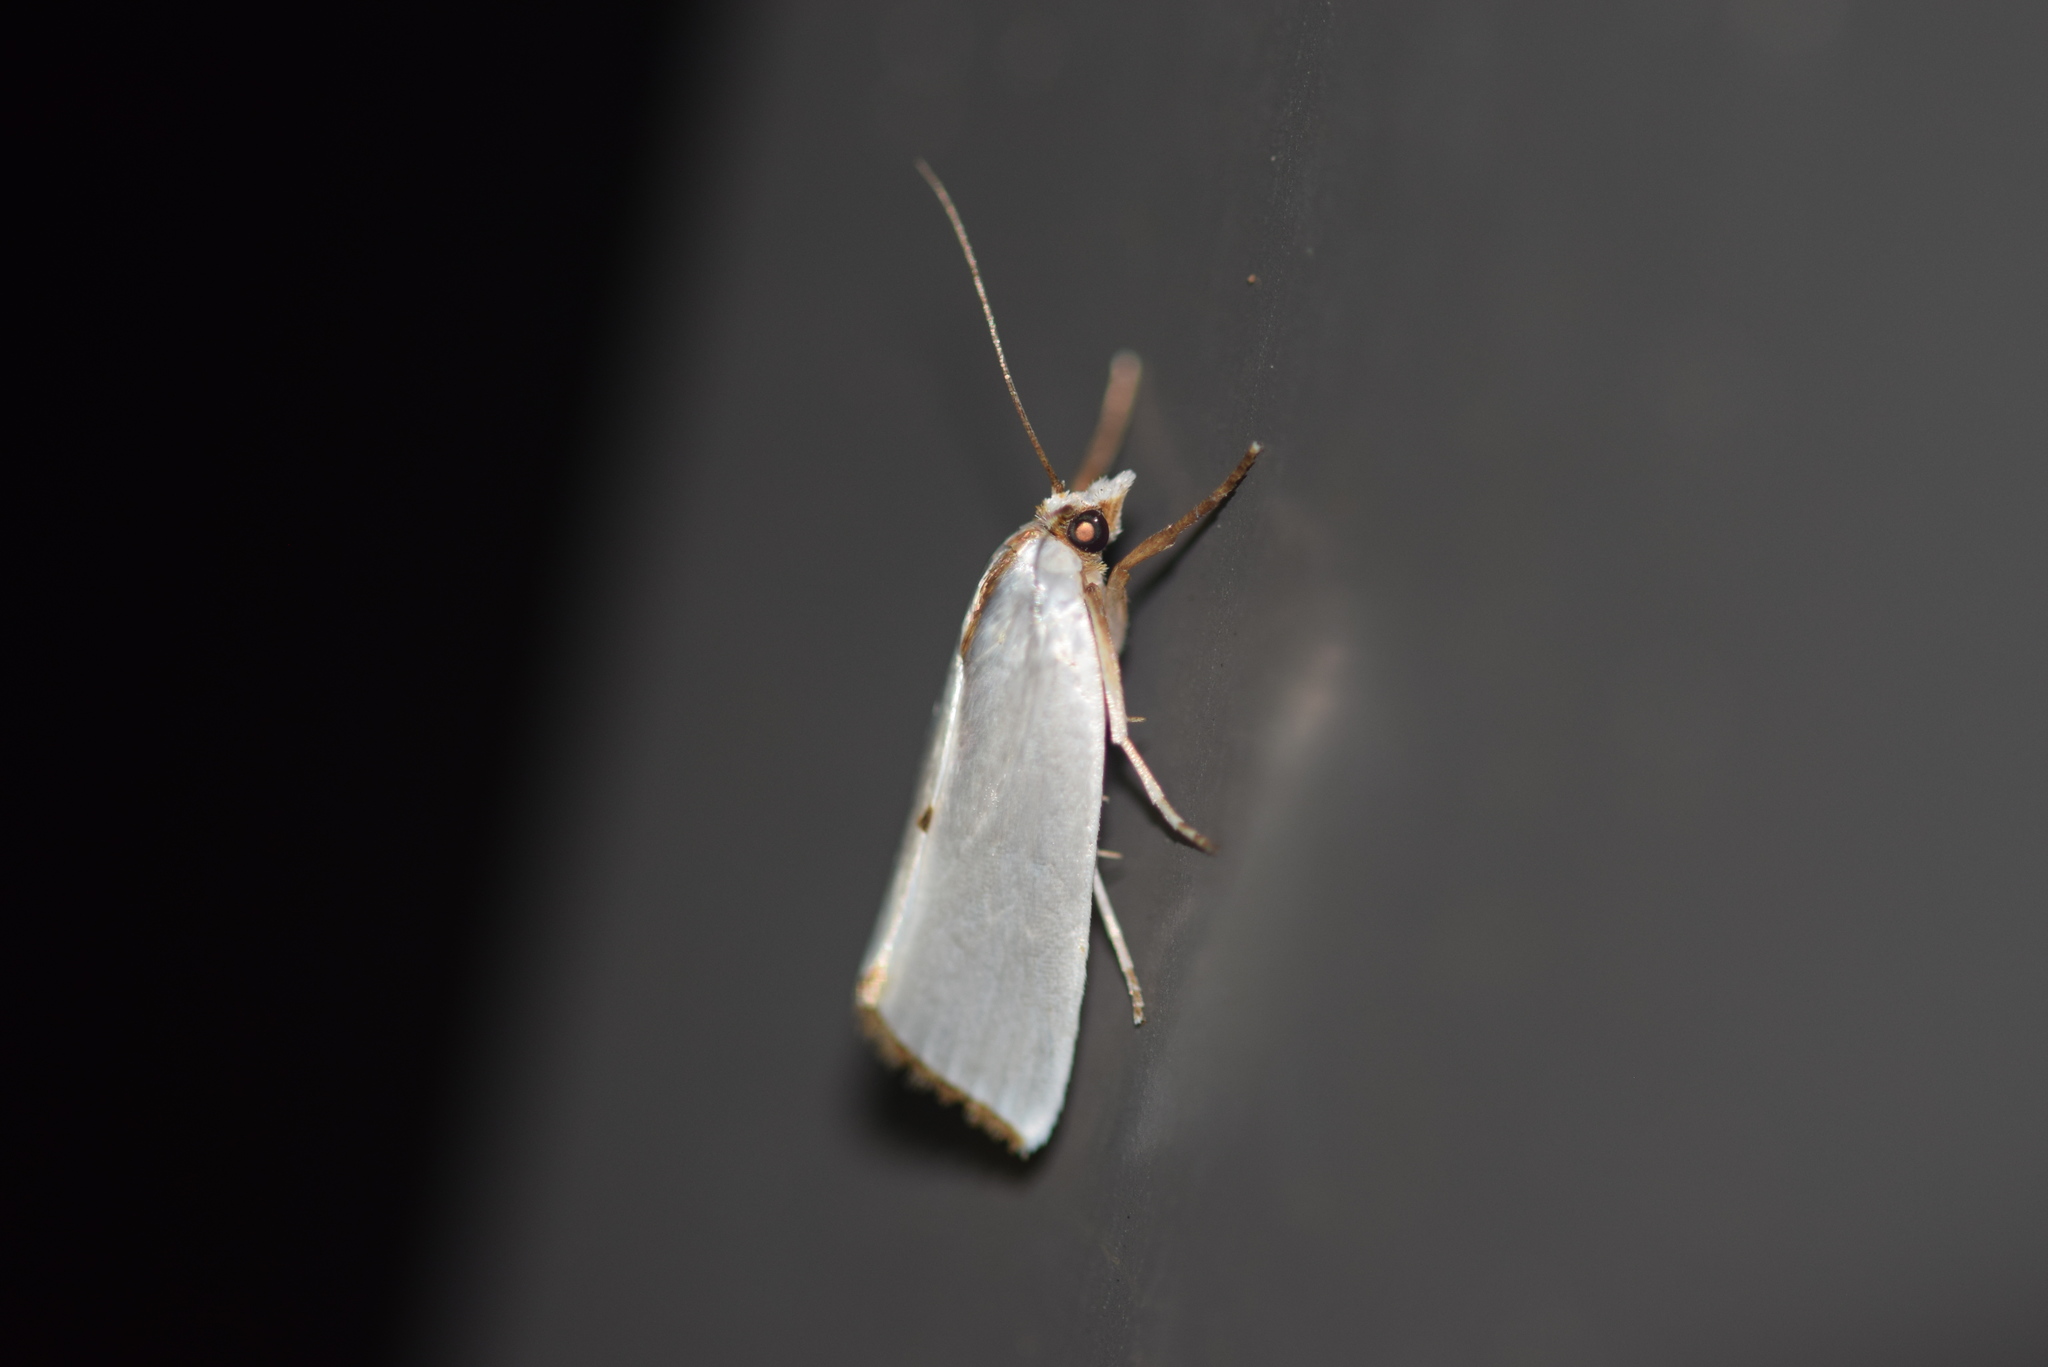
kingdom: Animalia
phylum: Arthropoda
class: Insecta
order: Lepidoptera
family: Crambidae
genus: Argyria
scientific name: Argyria nivalis
